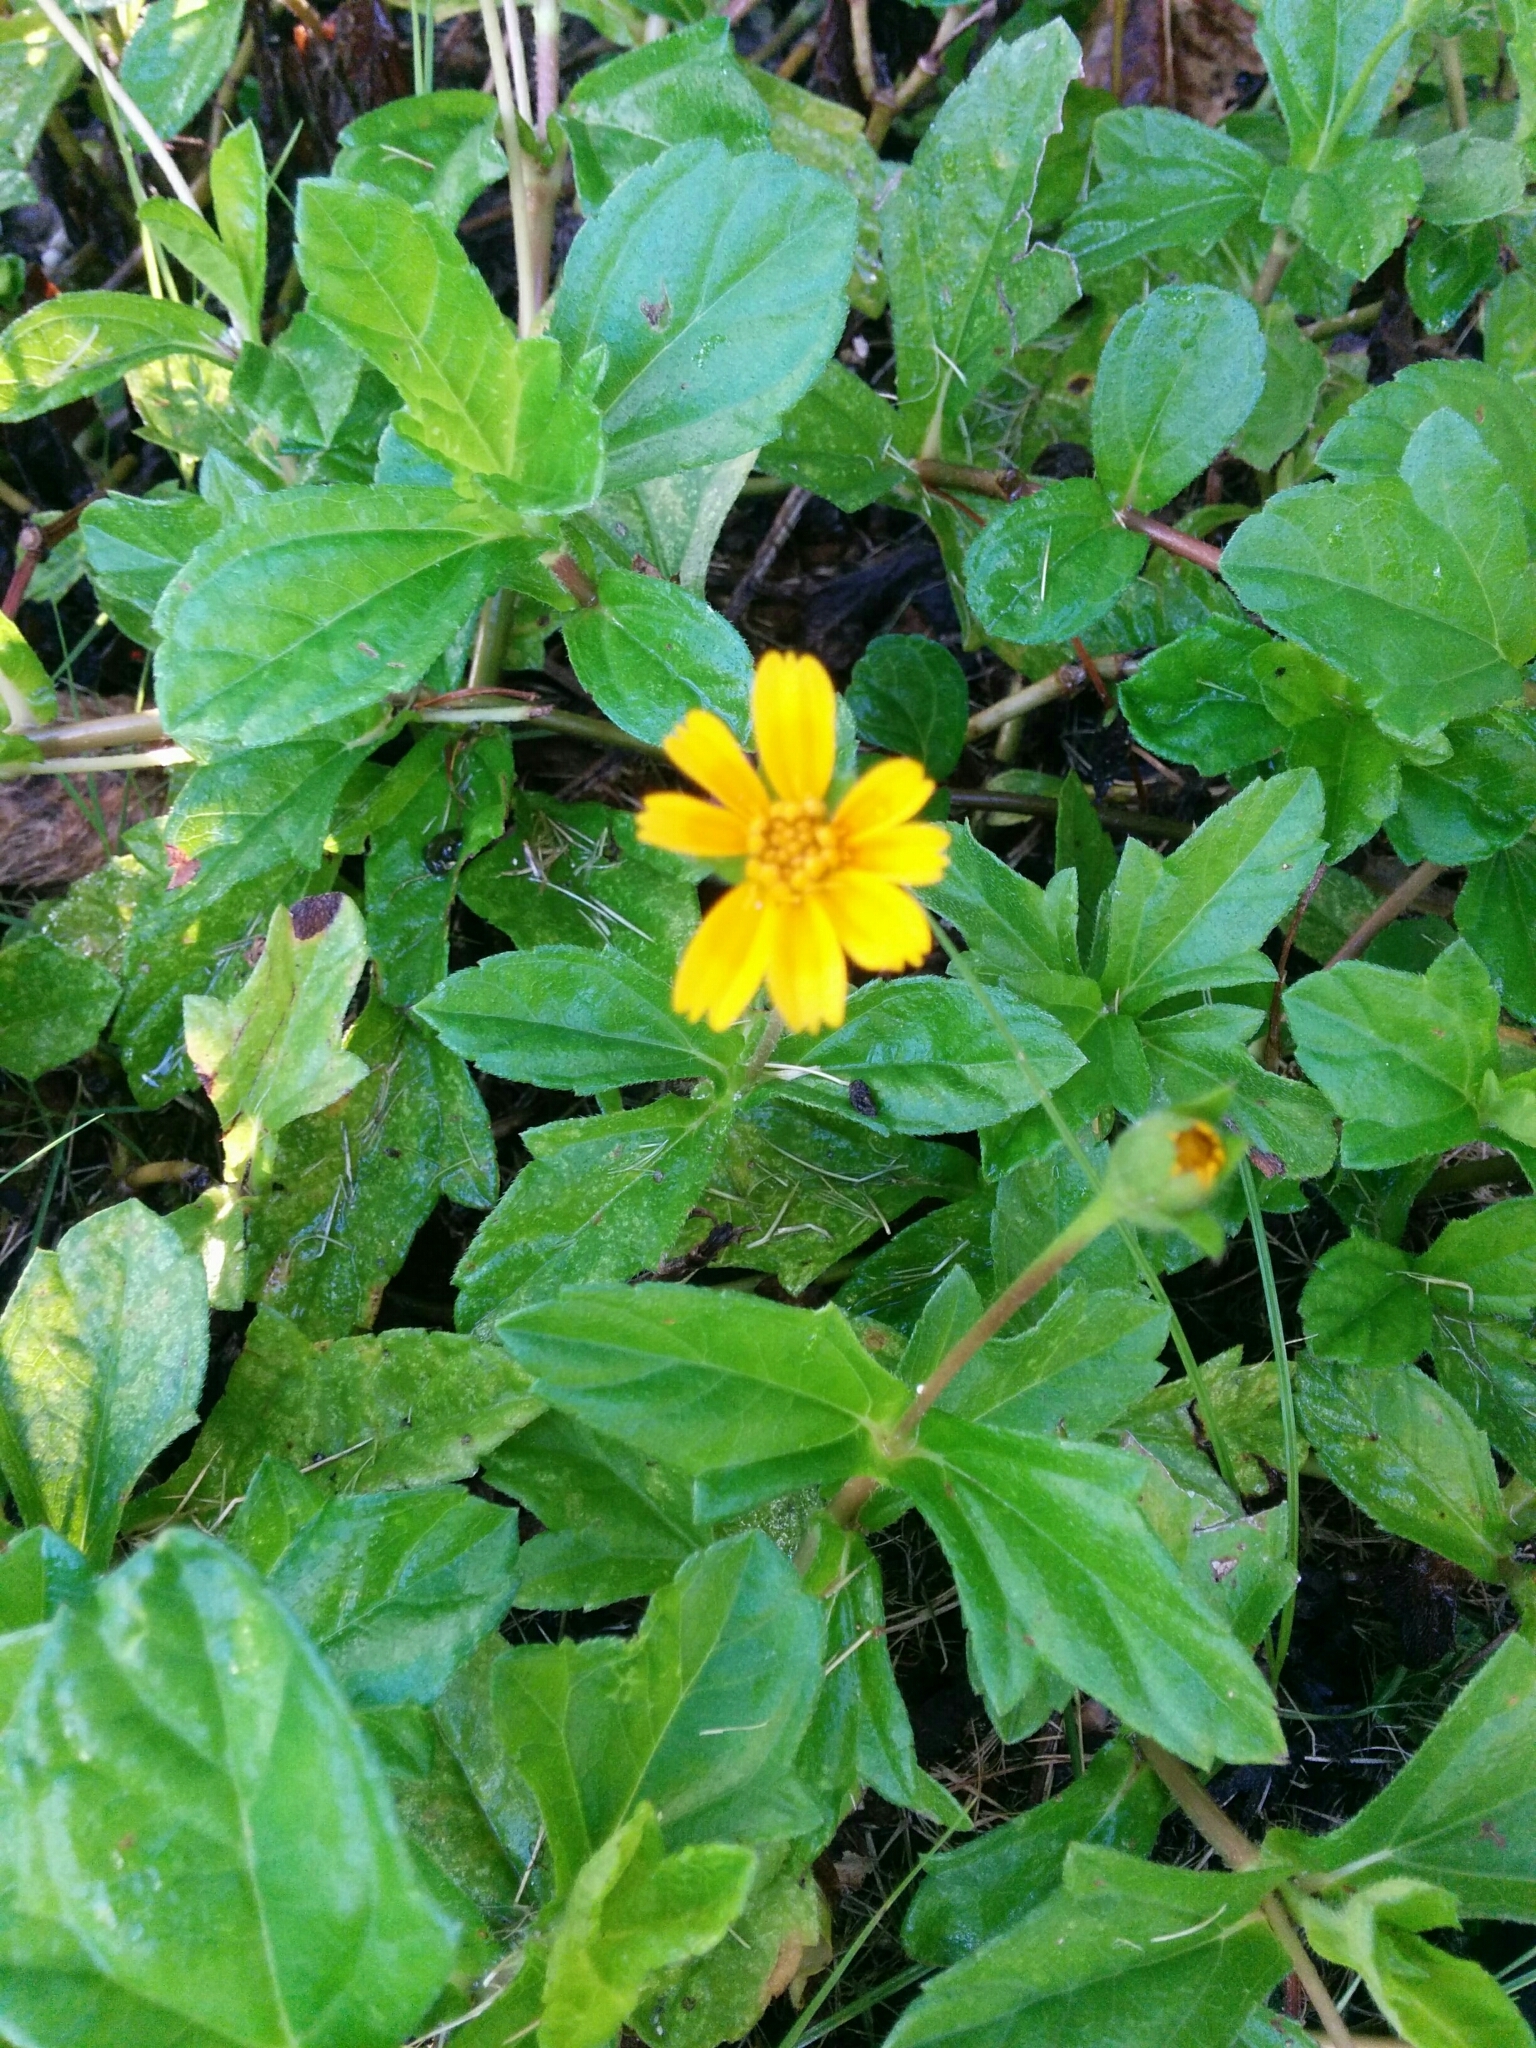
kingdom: Plantae
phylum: Tracheophyta
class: Magnoliopsida
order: Asterales
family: Asteraceae
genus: Sphagneticola
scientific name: Sphagneticola trilobata
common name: Bay biscayne creeping-oxeye
